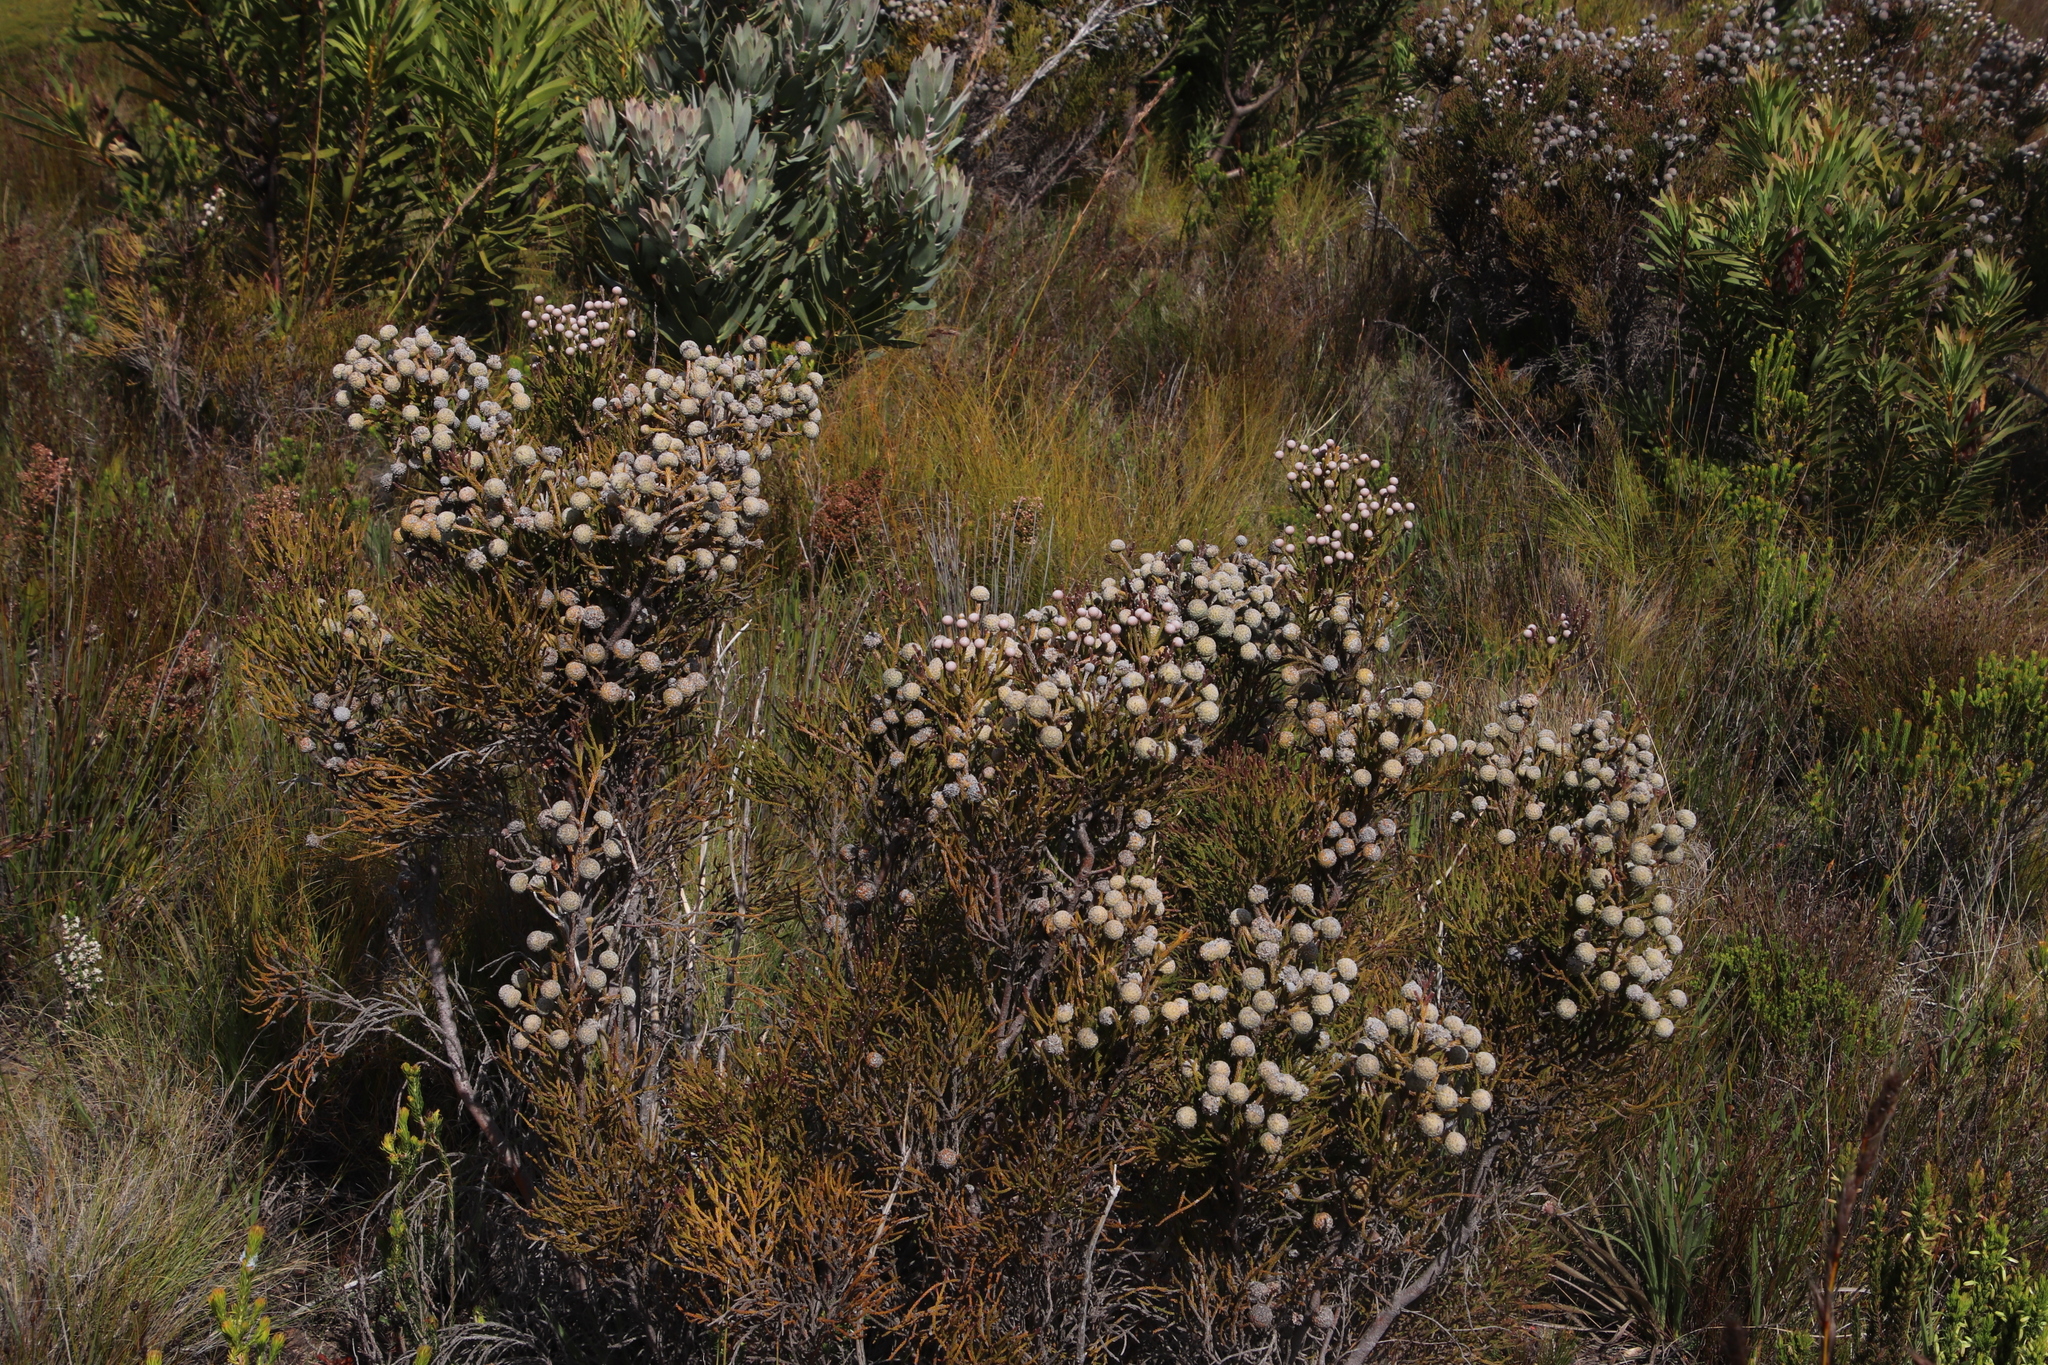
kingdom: Plantae
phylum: Tracheophyta
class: Magnoliopsida
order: Bruniales
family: Bruniaceae
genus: Brunia
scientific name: Brunia noduliflora
